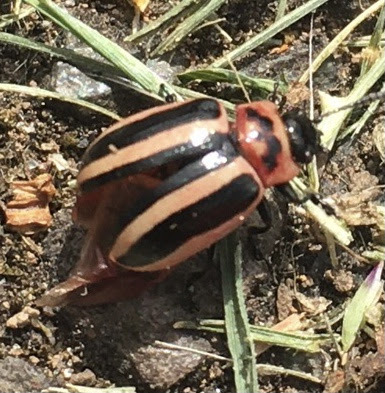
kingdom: Animalia
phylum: Arthropoda
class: Insecta
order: Coleoptera
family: Chrysomelidae
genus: Calligrapha
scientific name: Calligrapha californica
